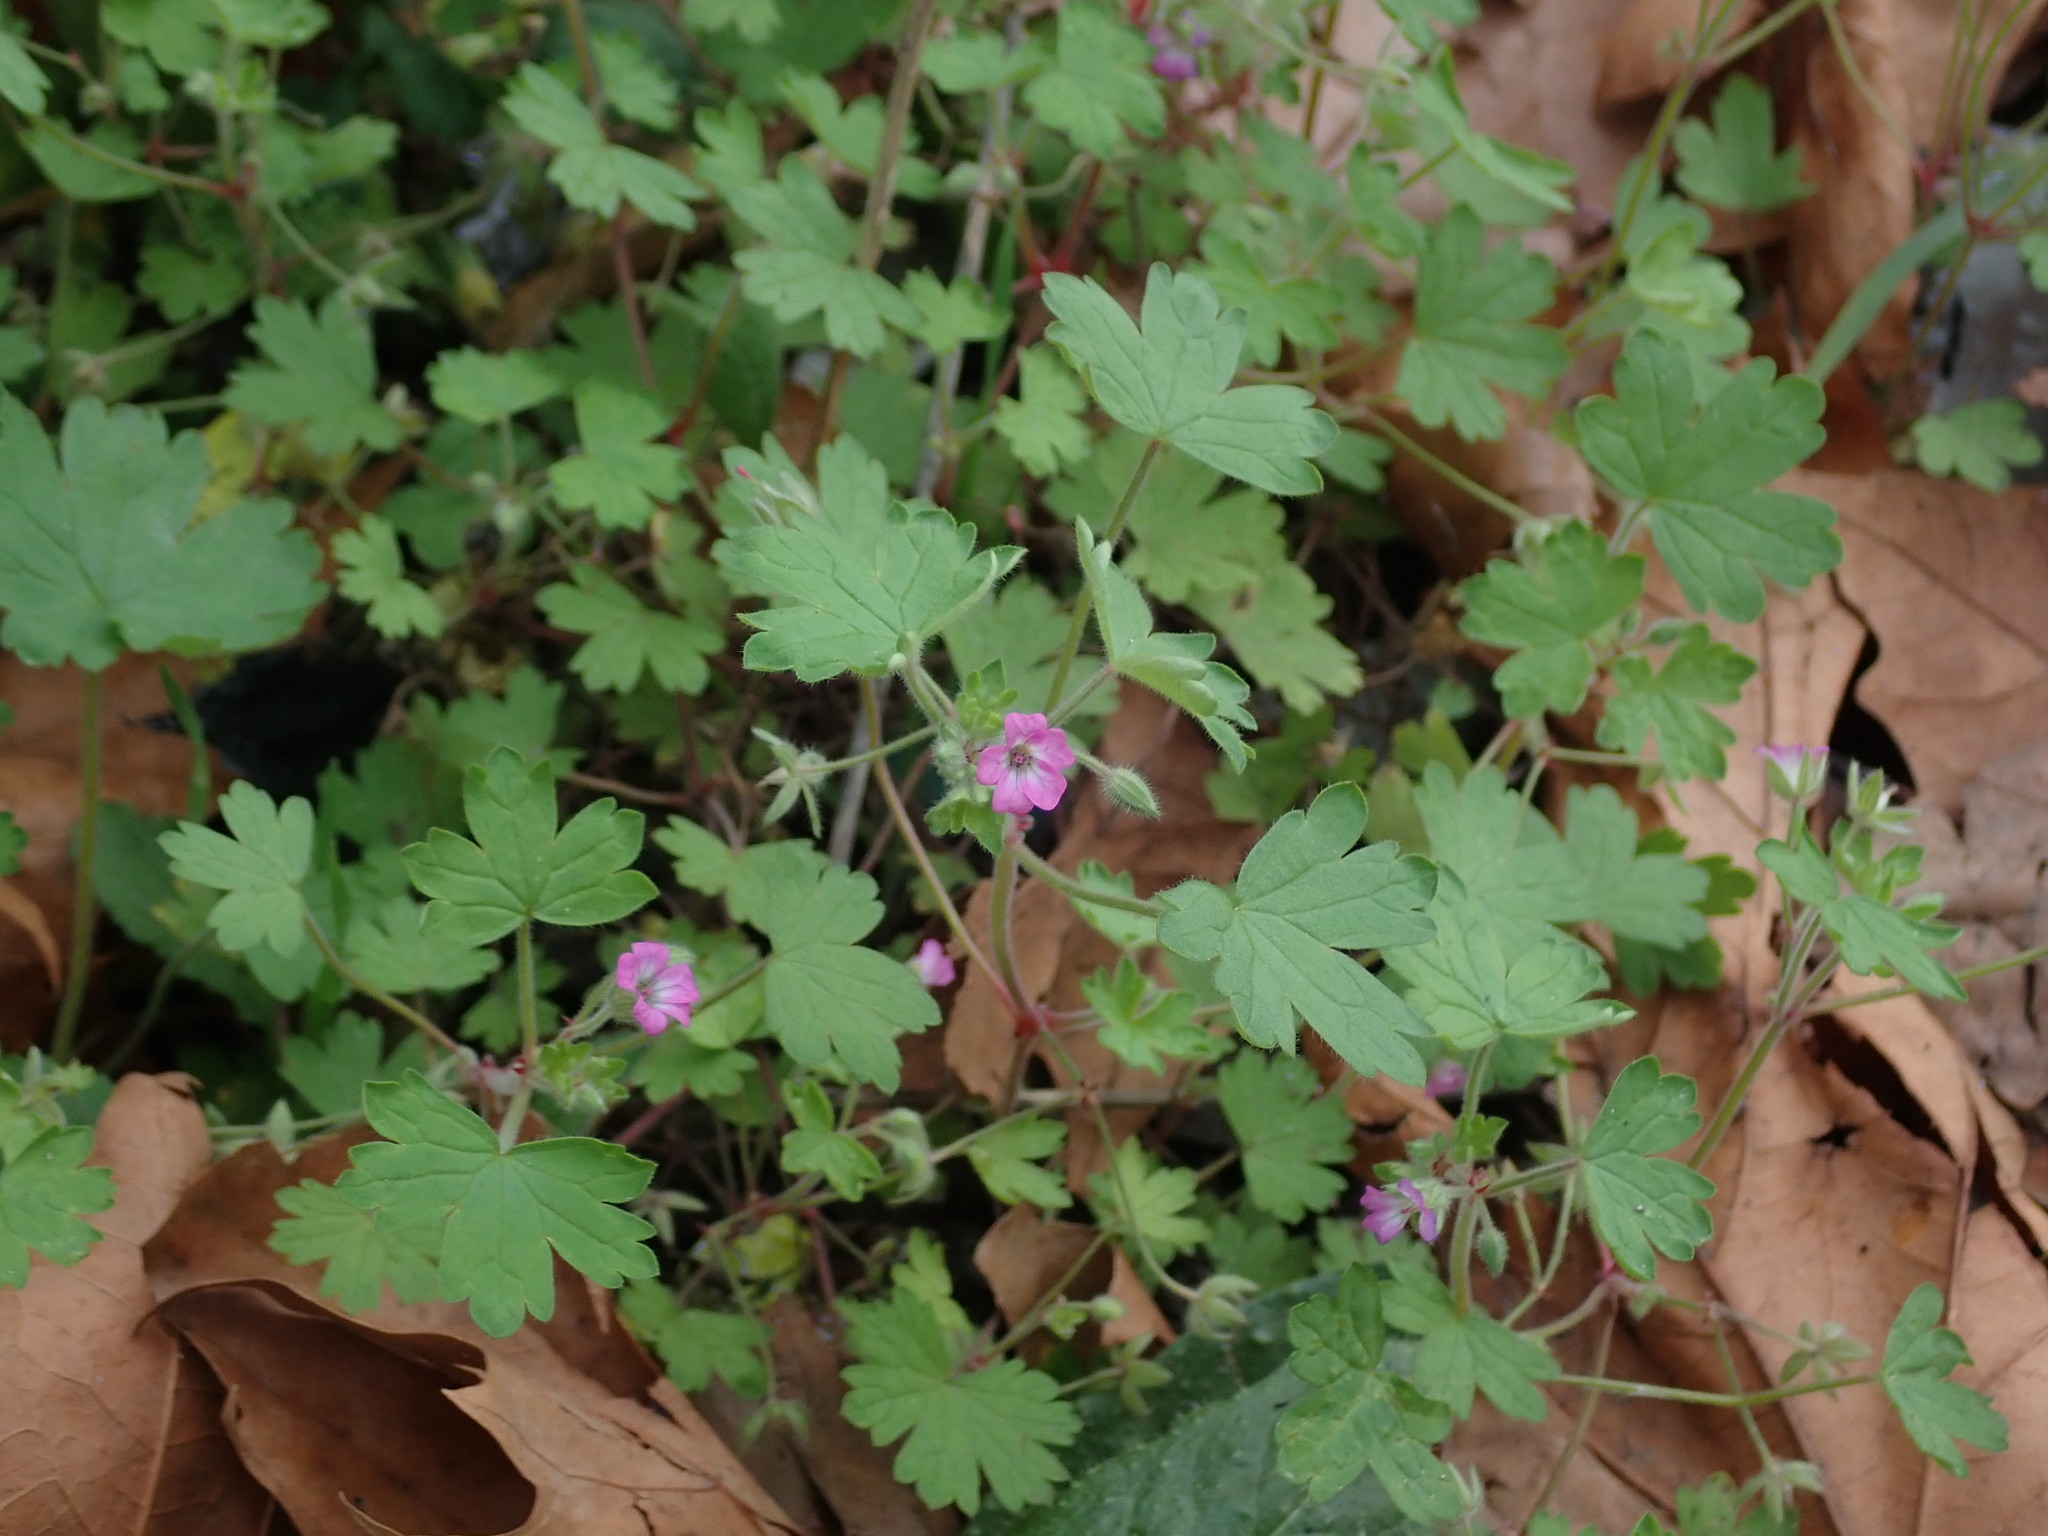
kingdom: Plantae
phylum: Tracheophyta
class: Magnoliopsida
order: Geraniales
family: Geraniaceae
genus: Geranium
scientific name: Geranium rotundifolium
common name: Round-leaved crane's-bill
